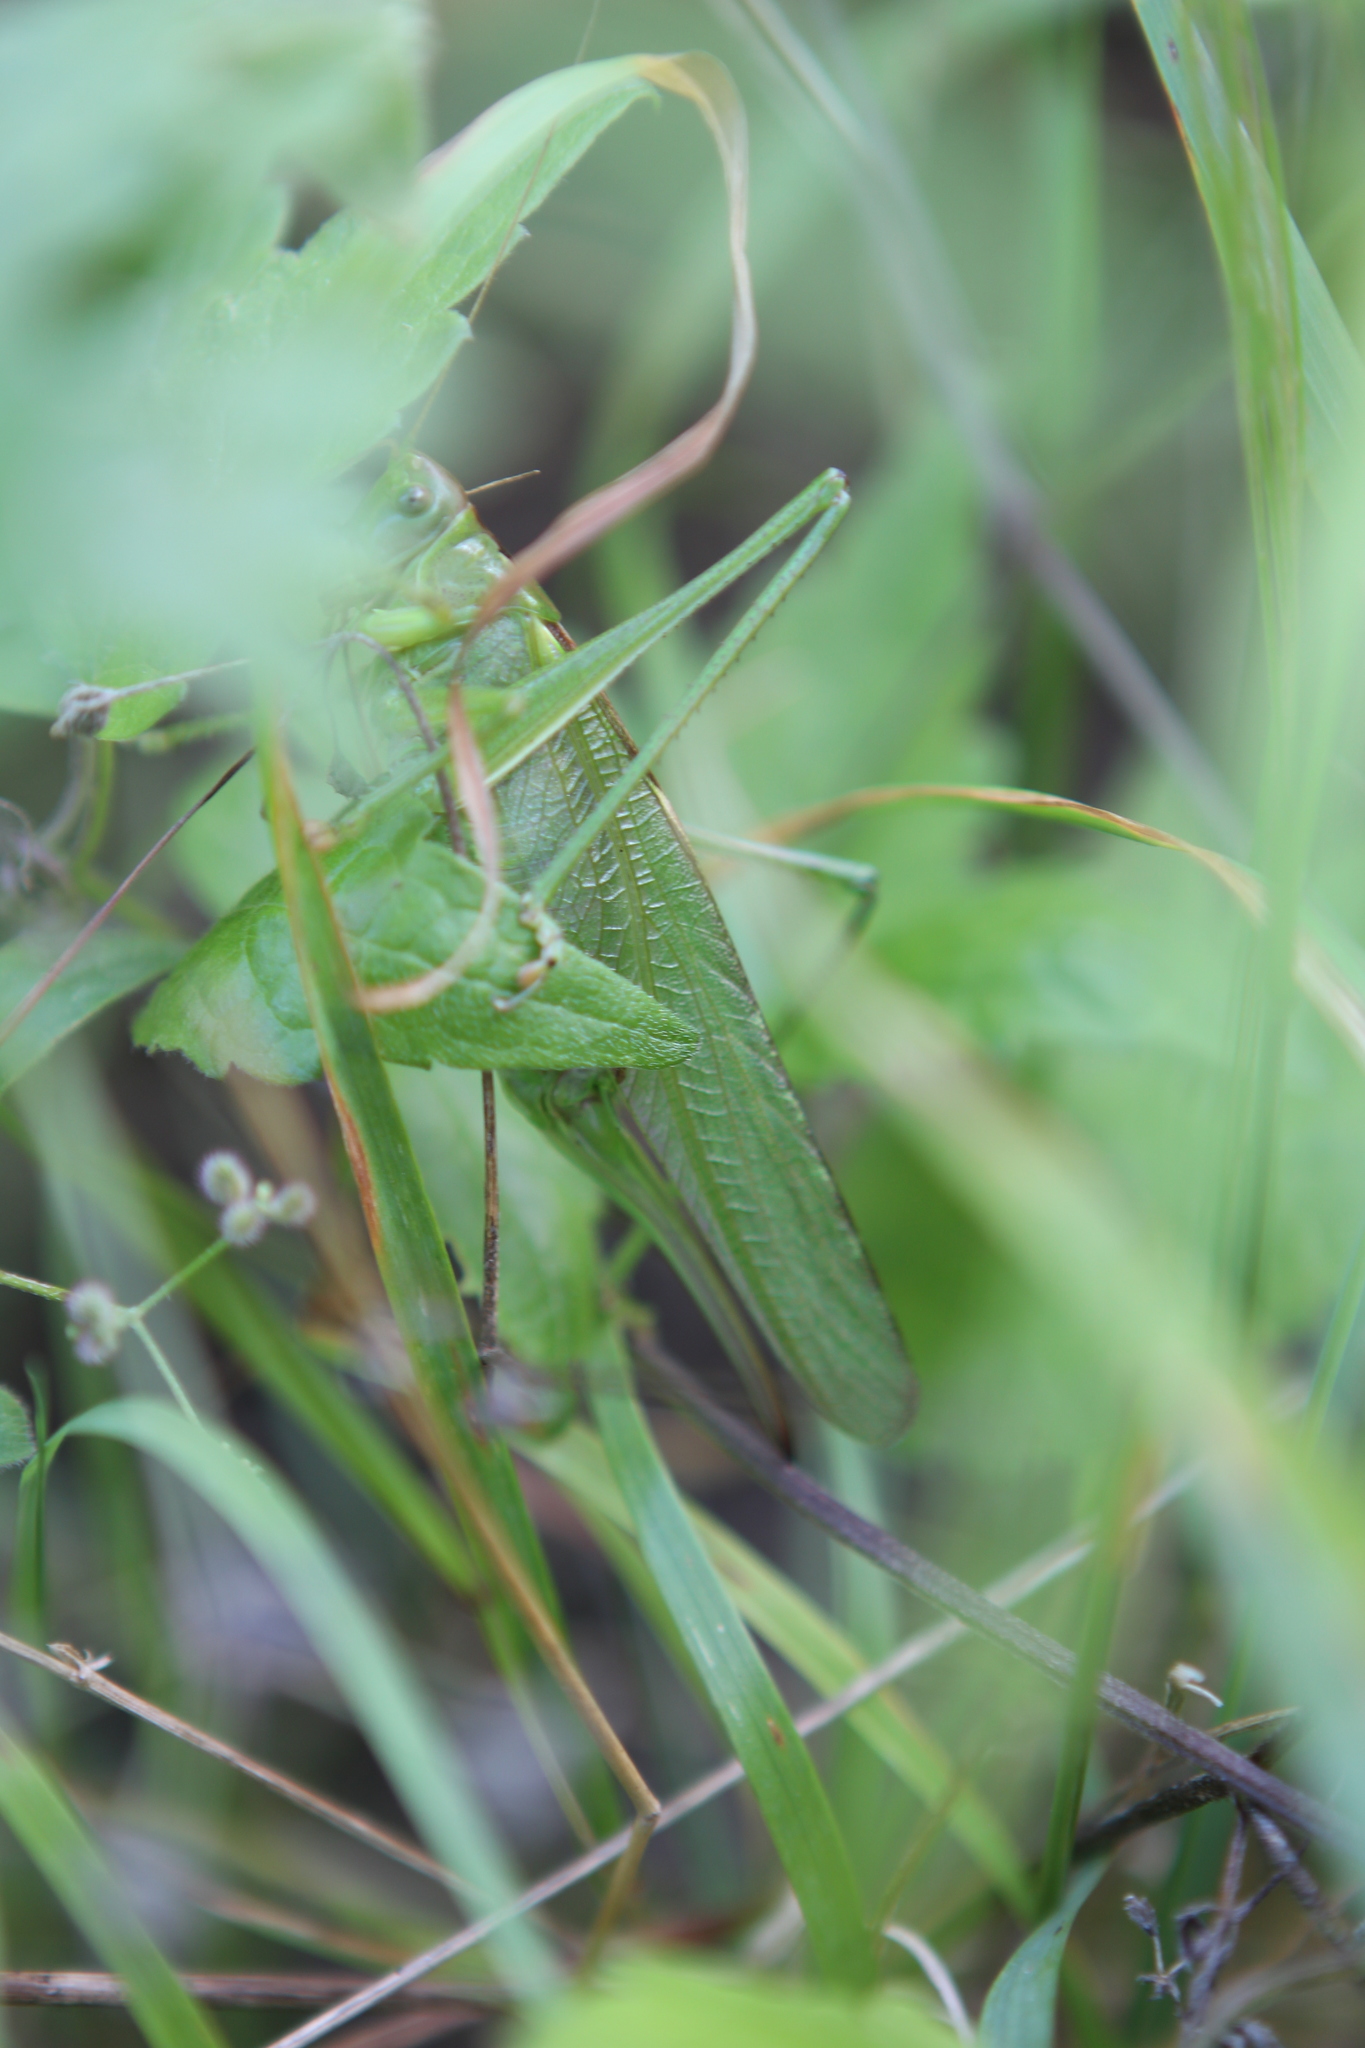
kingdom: Animalia
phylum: Arthropoda
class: Insecta
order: Orthoptera
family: Tettigoniidae
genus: Tettigonia
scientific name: Tettigonia viridissima
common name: Great green bush-cricket
